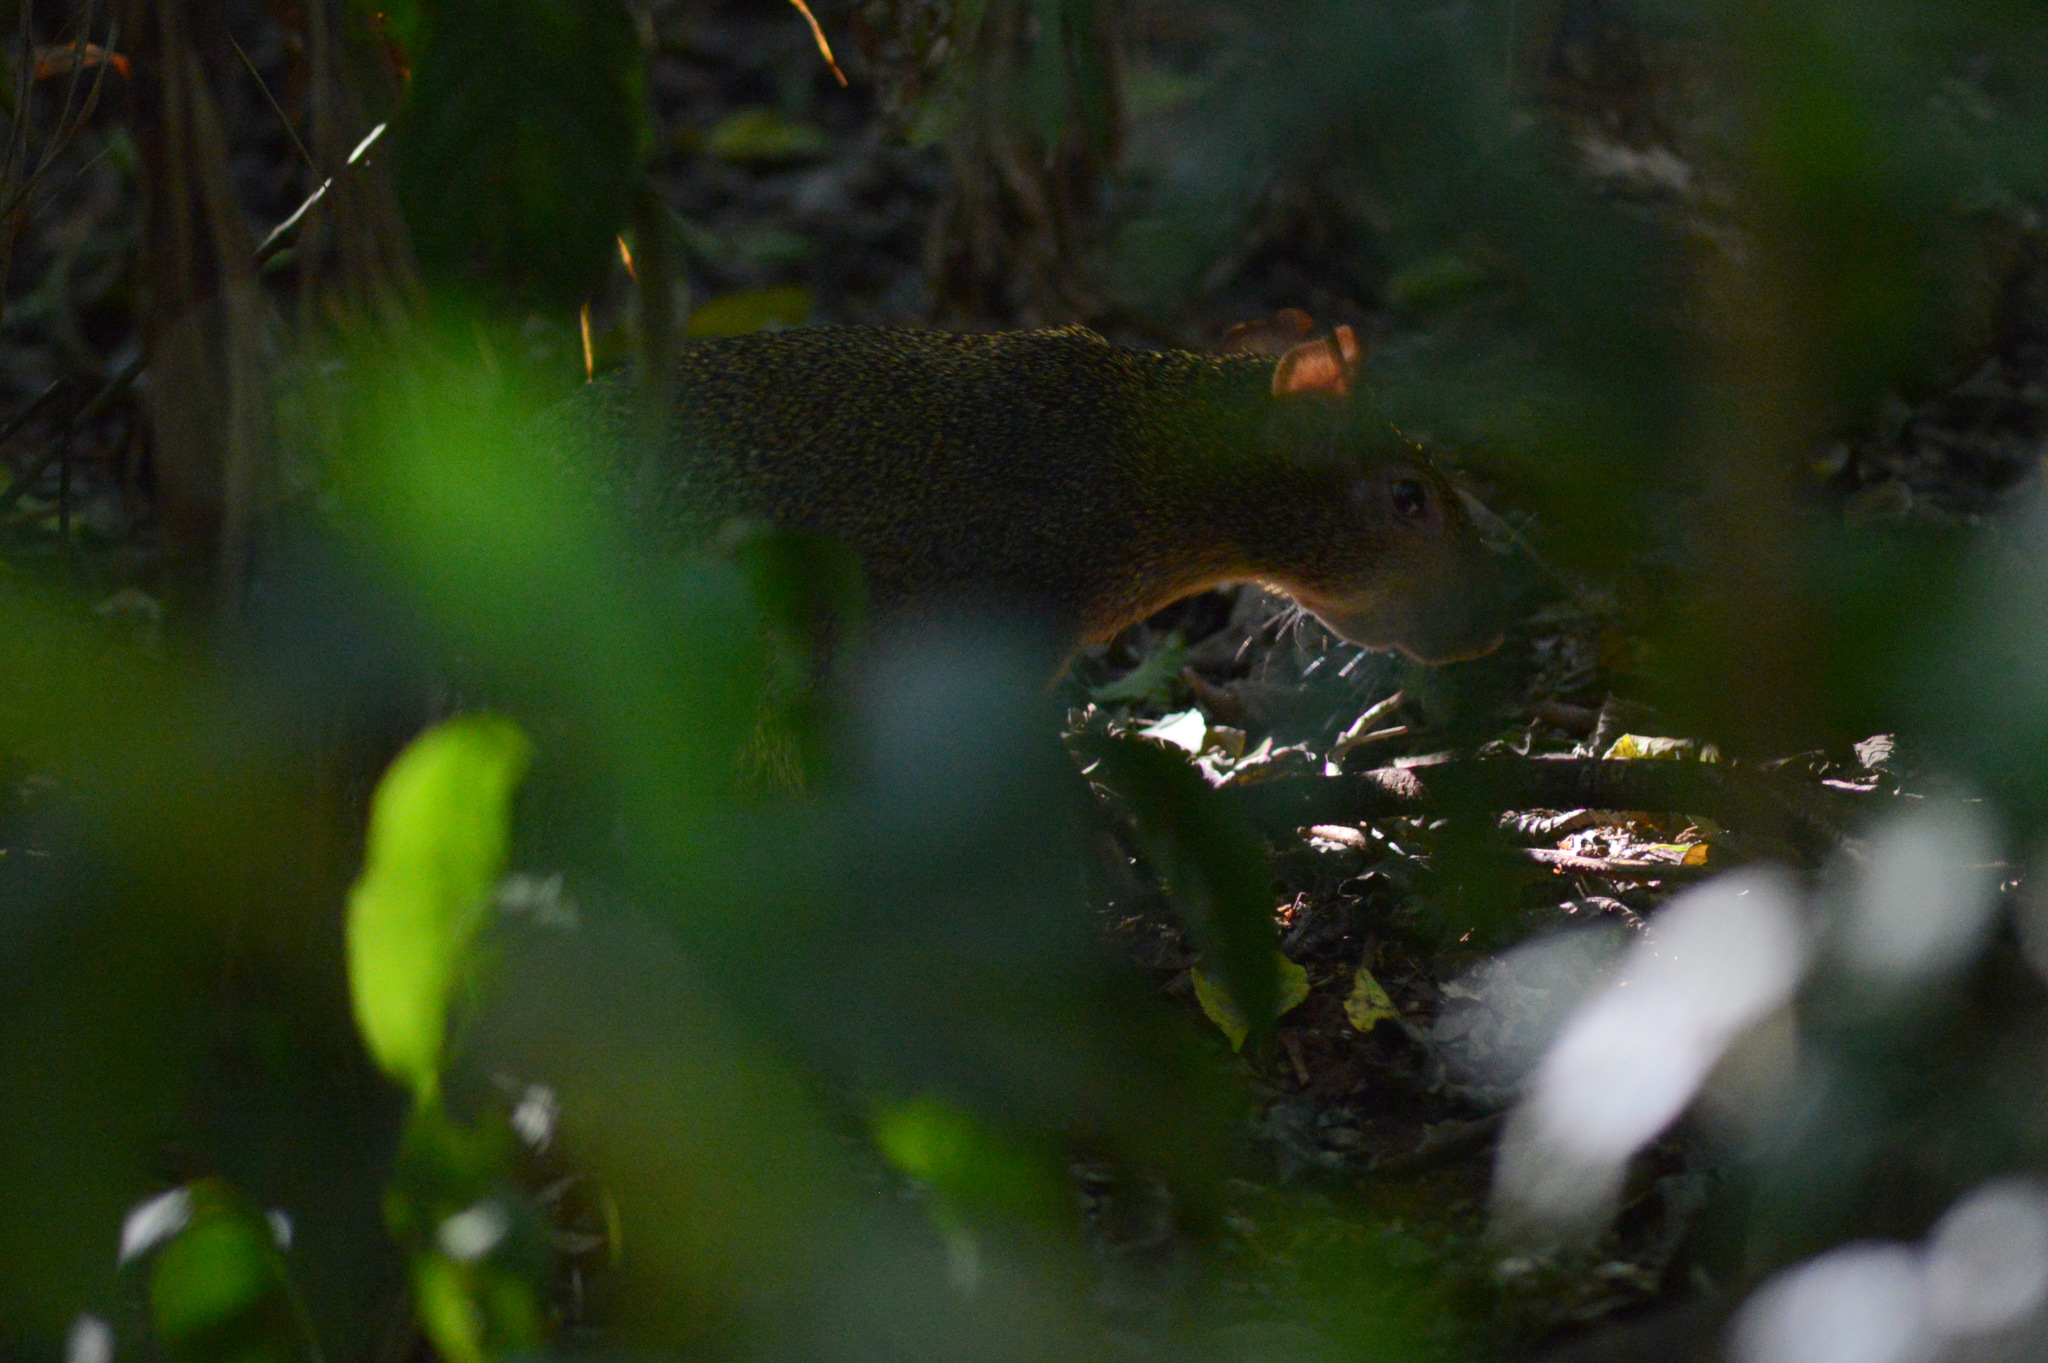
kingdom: Animalia
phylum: Chordata
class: Mammalia
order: Rodentia
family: Dasyproctidae
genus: Dasyprocta
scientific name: Dasyprocta azarae
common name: Azara's agouti
